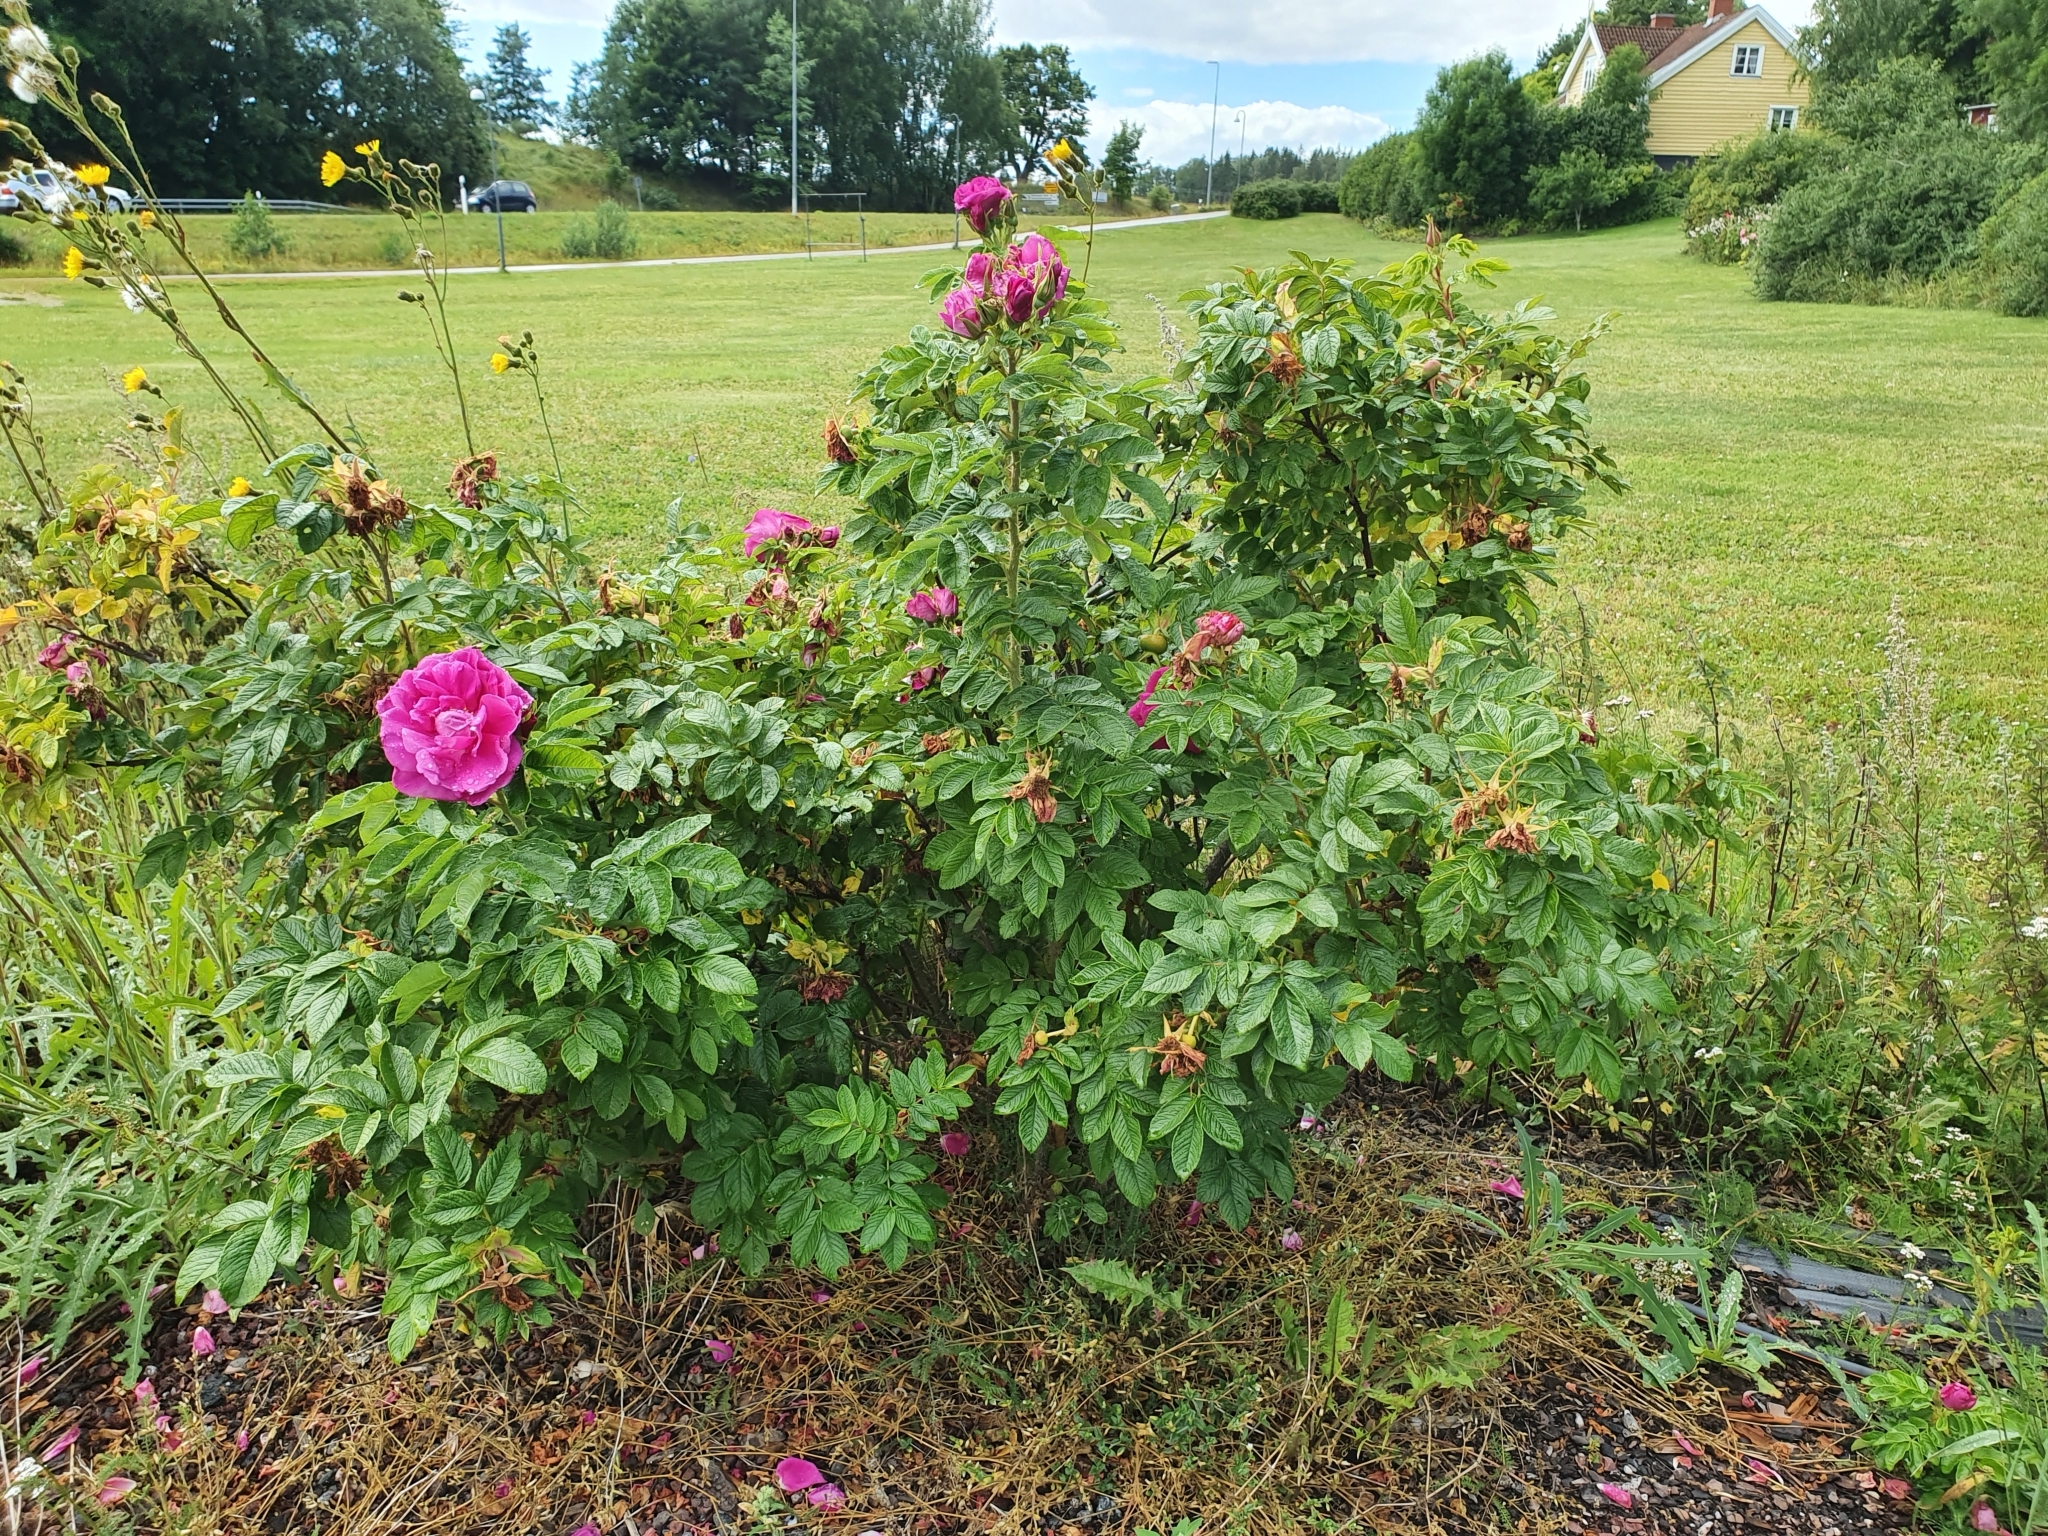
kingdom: Plantae
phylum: Tracheophyta
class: Magnoliopsida
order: Rosales
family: Rosaceae
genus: Rosa
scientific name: Rosa rugosa
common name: Japanese rose
